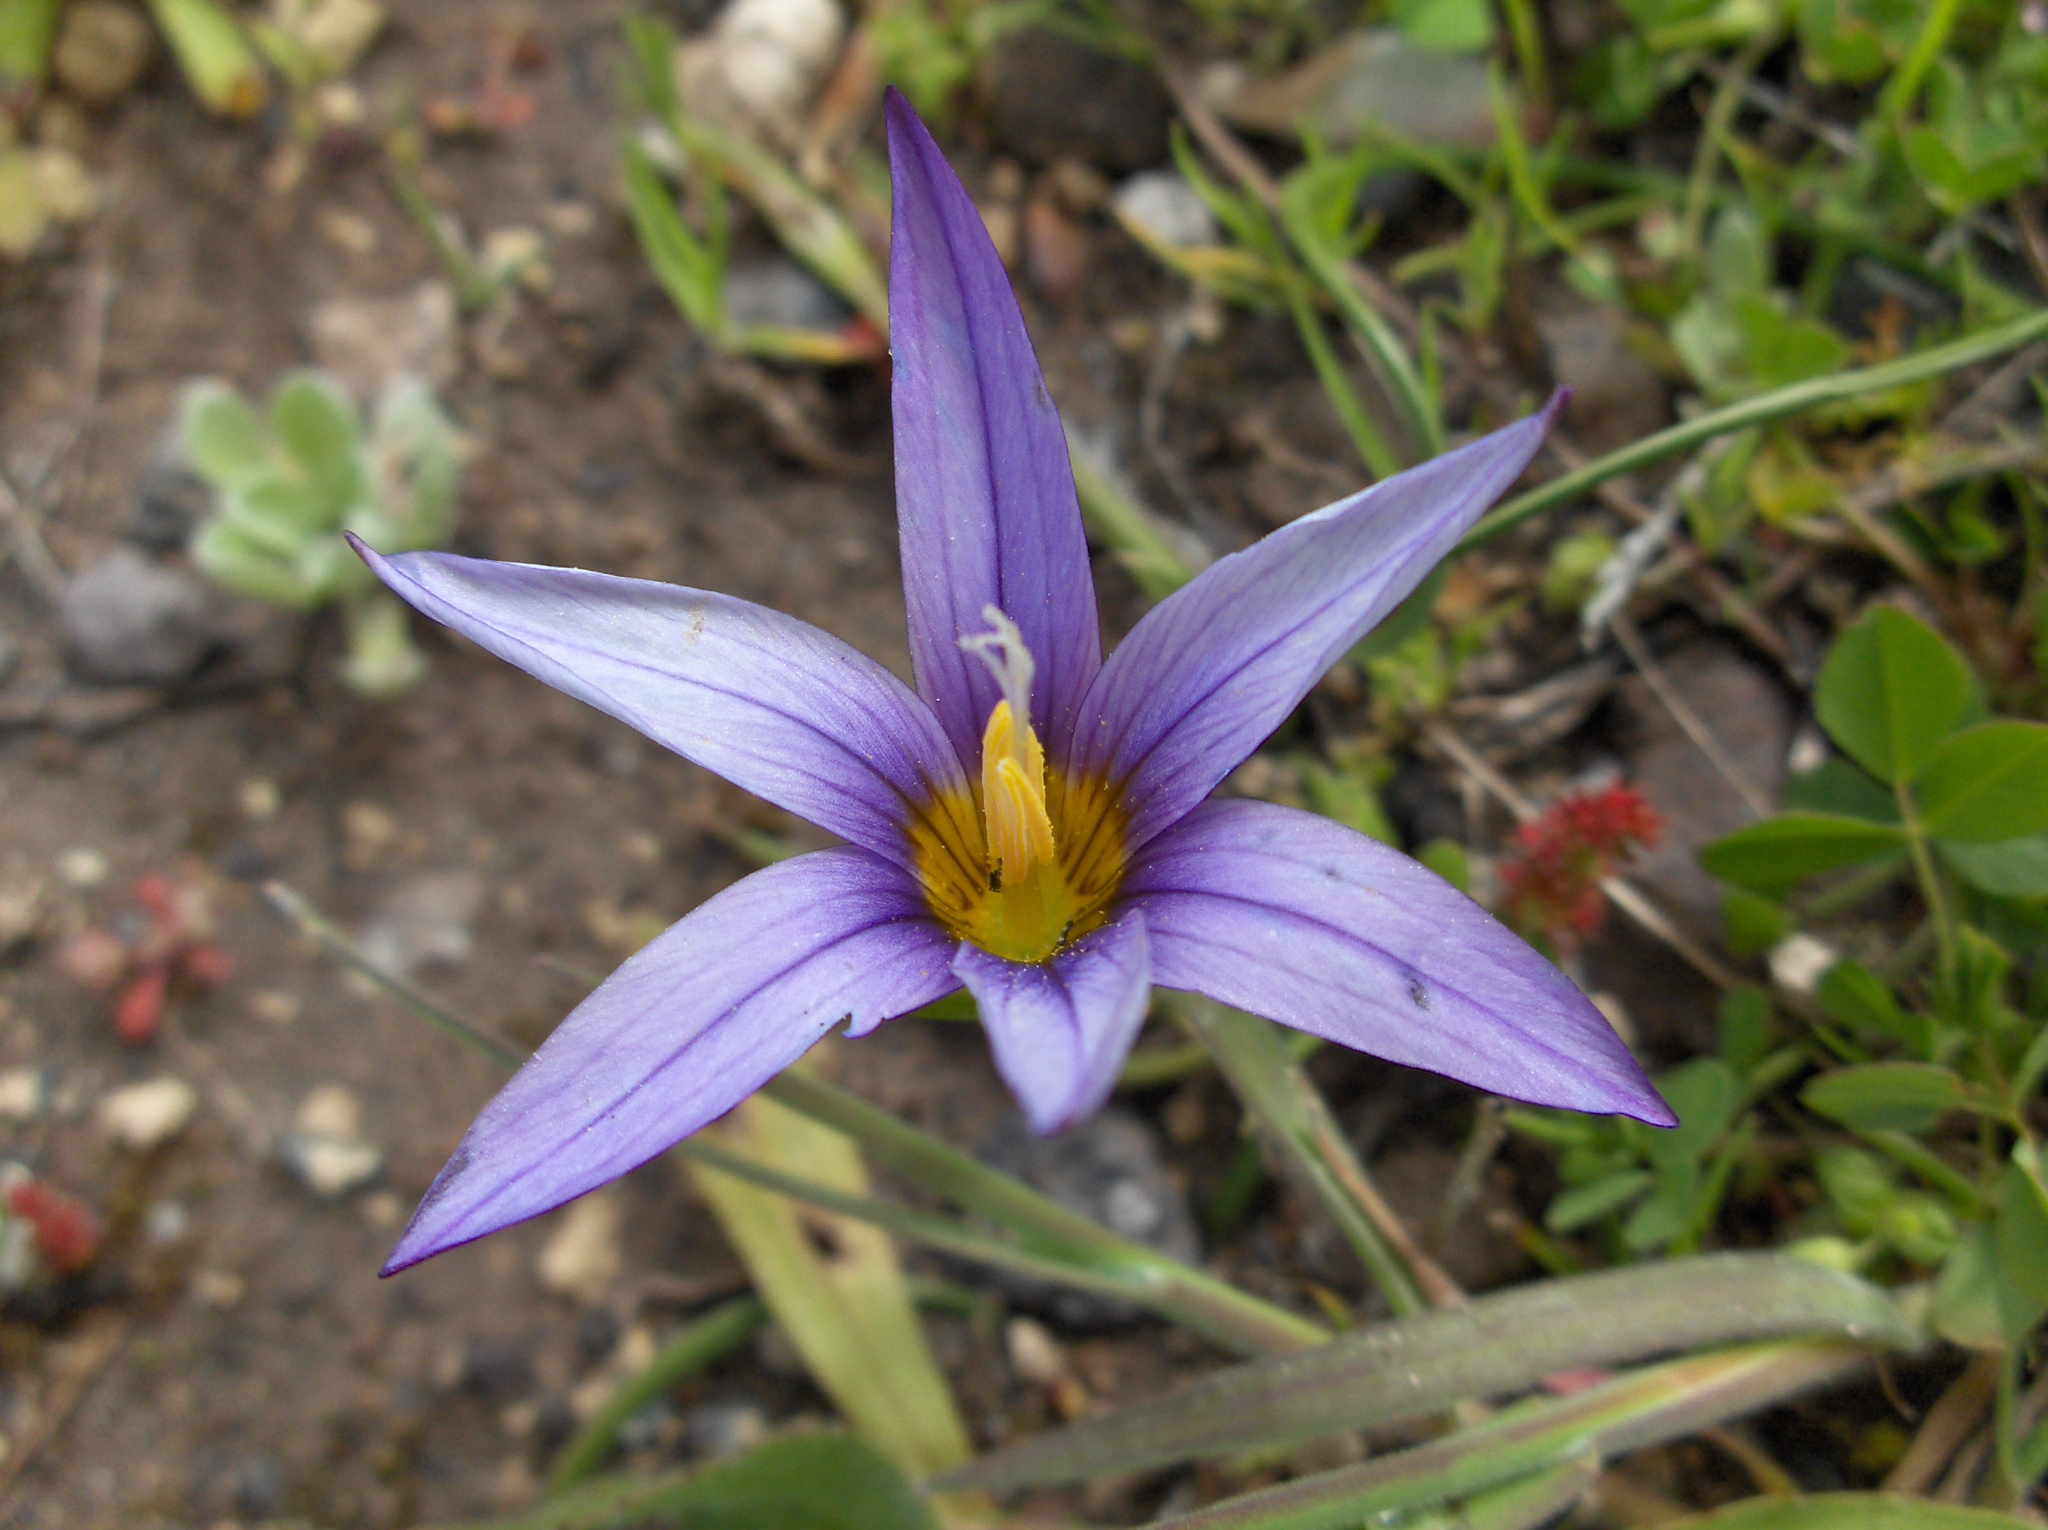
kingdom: Plantae
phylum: Tracheophyta
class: Liliopsida
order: Asparagales
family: Iridaceae
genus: Romulea
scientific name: Romulea columnae
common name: Sand-crocus
